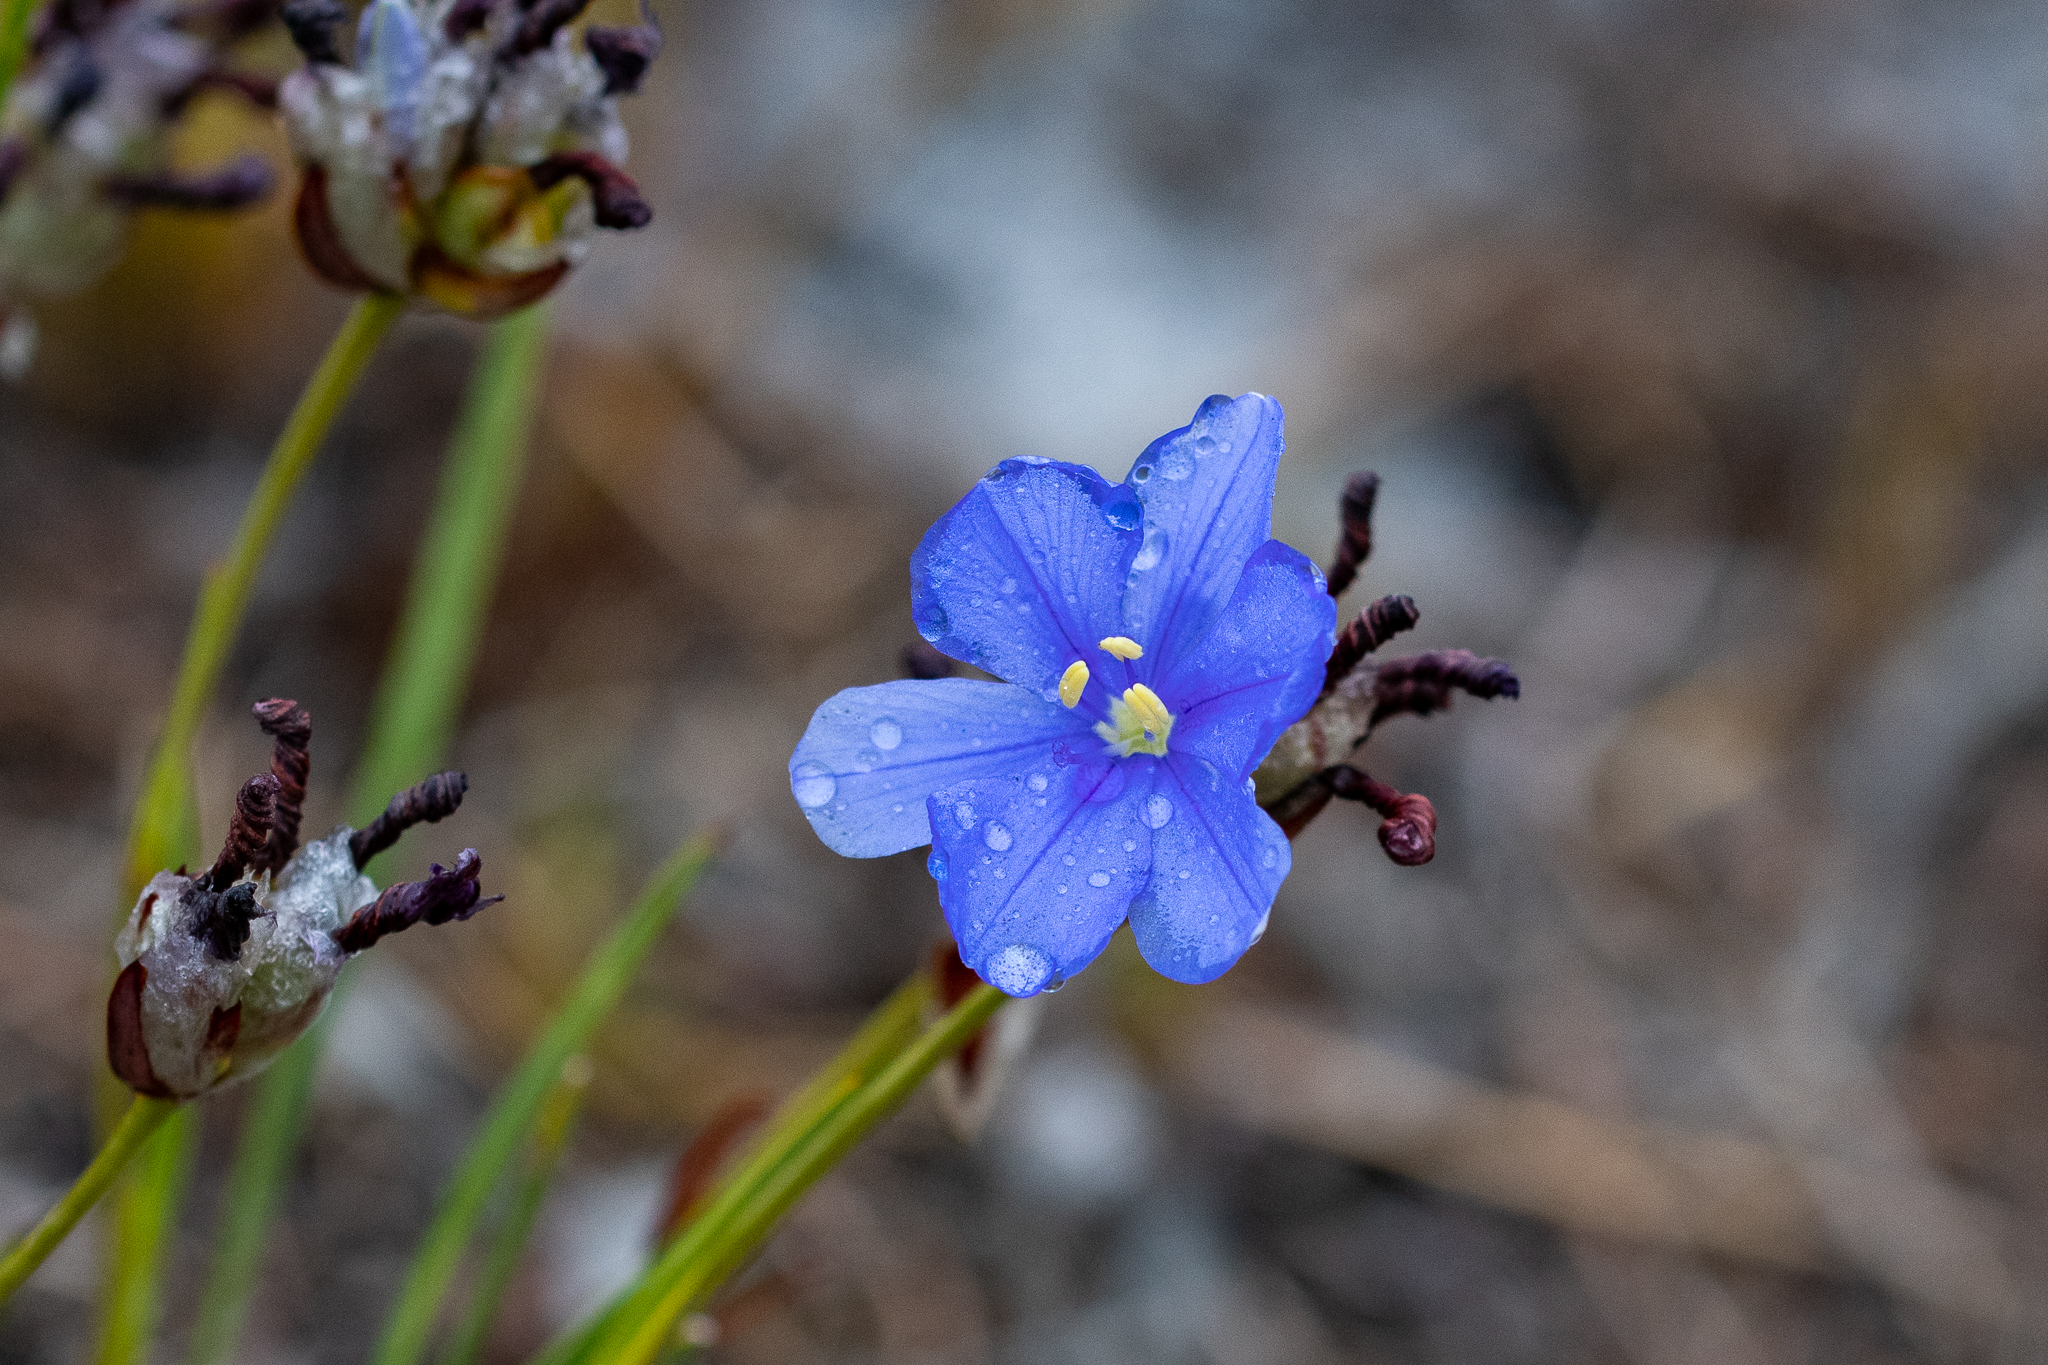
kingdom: Plantae
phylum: Tracheophyta
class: Liliopsida
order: Asparagales
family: Iridaceae
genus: Aristea
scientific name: Aristea africana
